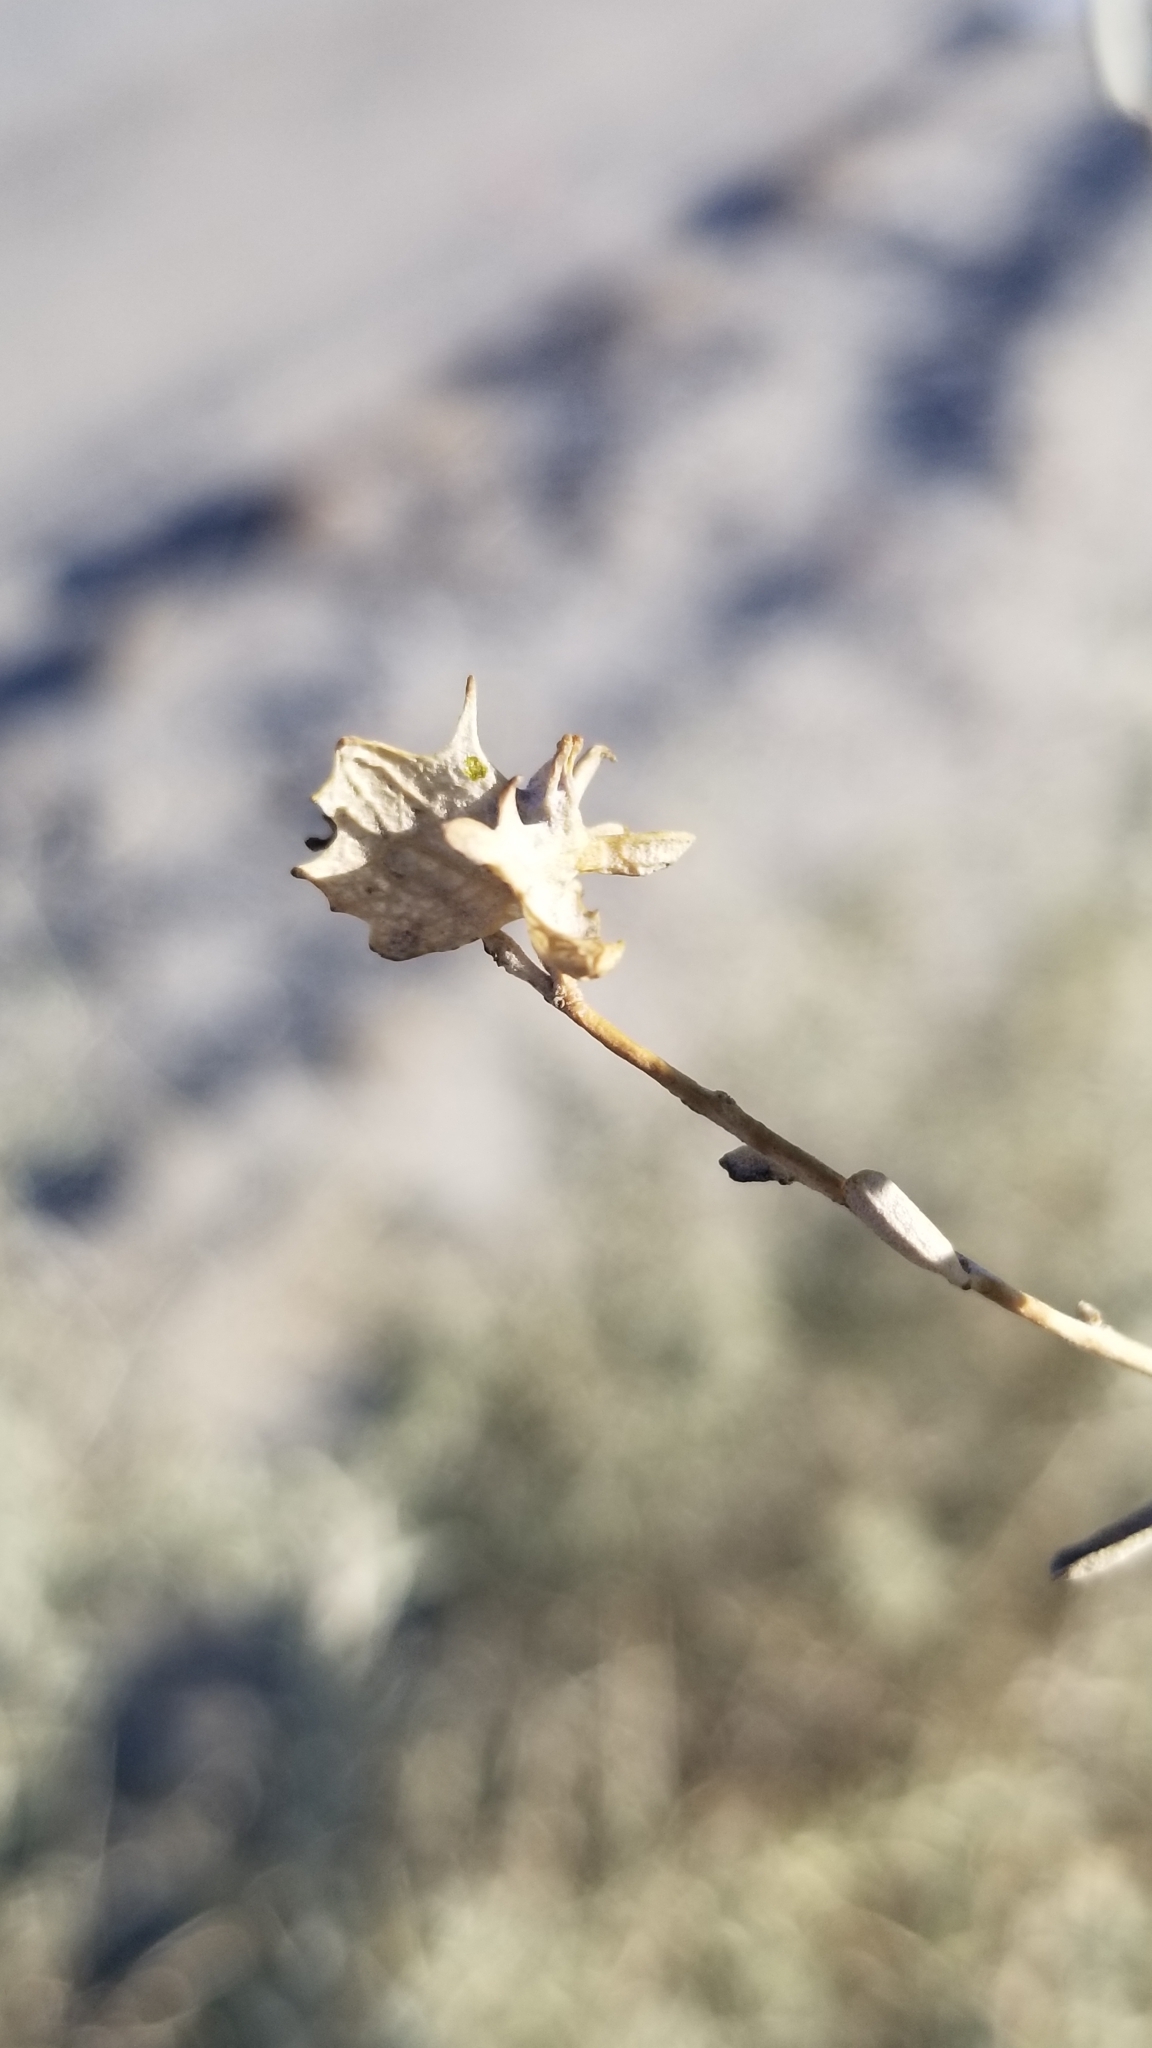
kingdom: Plantae
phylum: Tracheophyta
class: Magnoliopsida
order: Caryophyllales
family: Amaranthaceae
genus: Atriplex
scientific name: Atriplex canescens
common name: Four-wing saltbush
